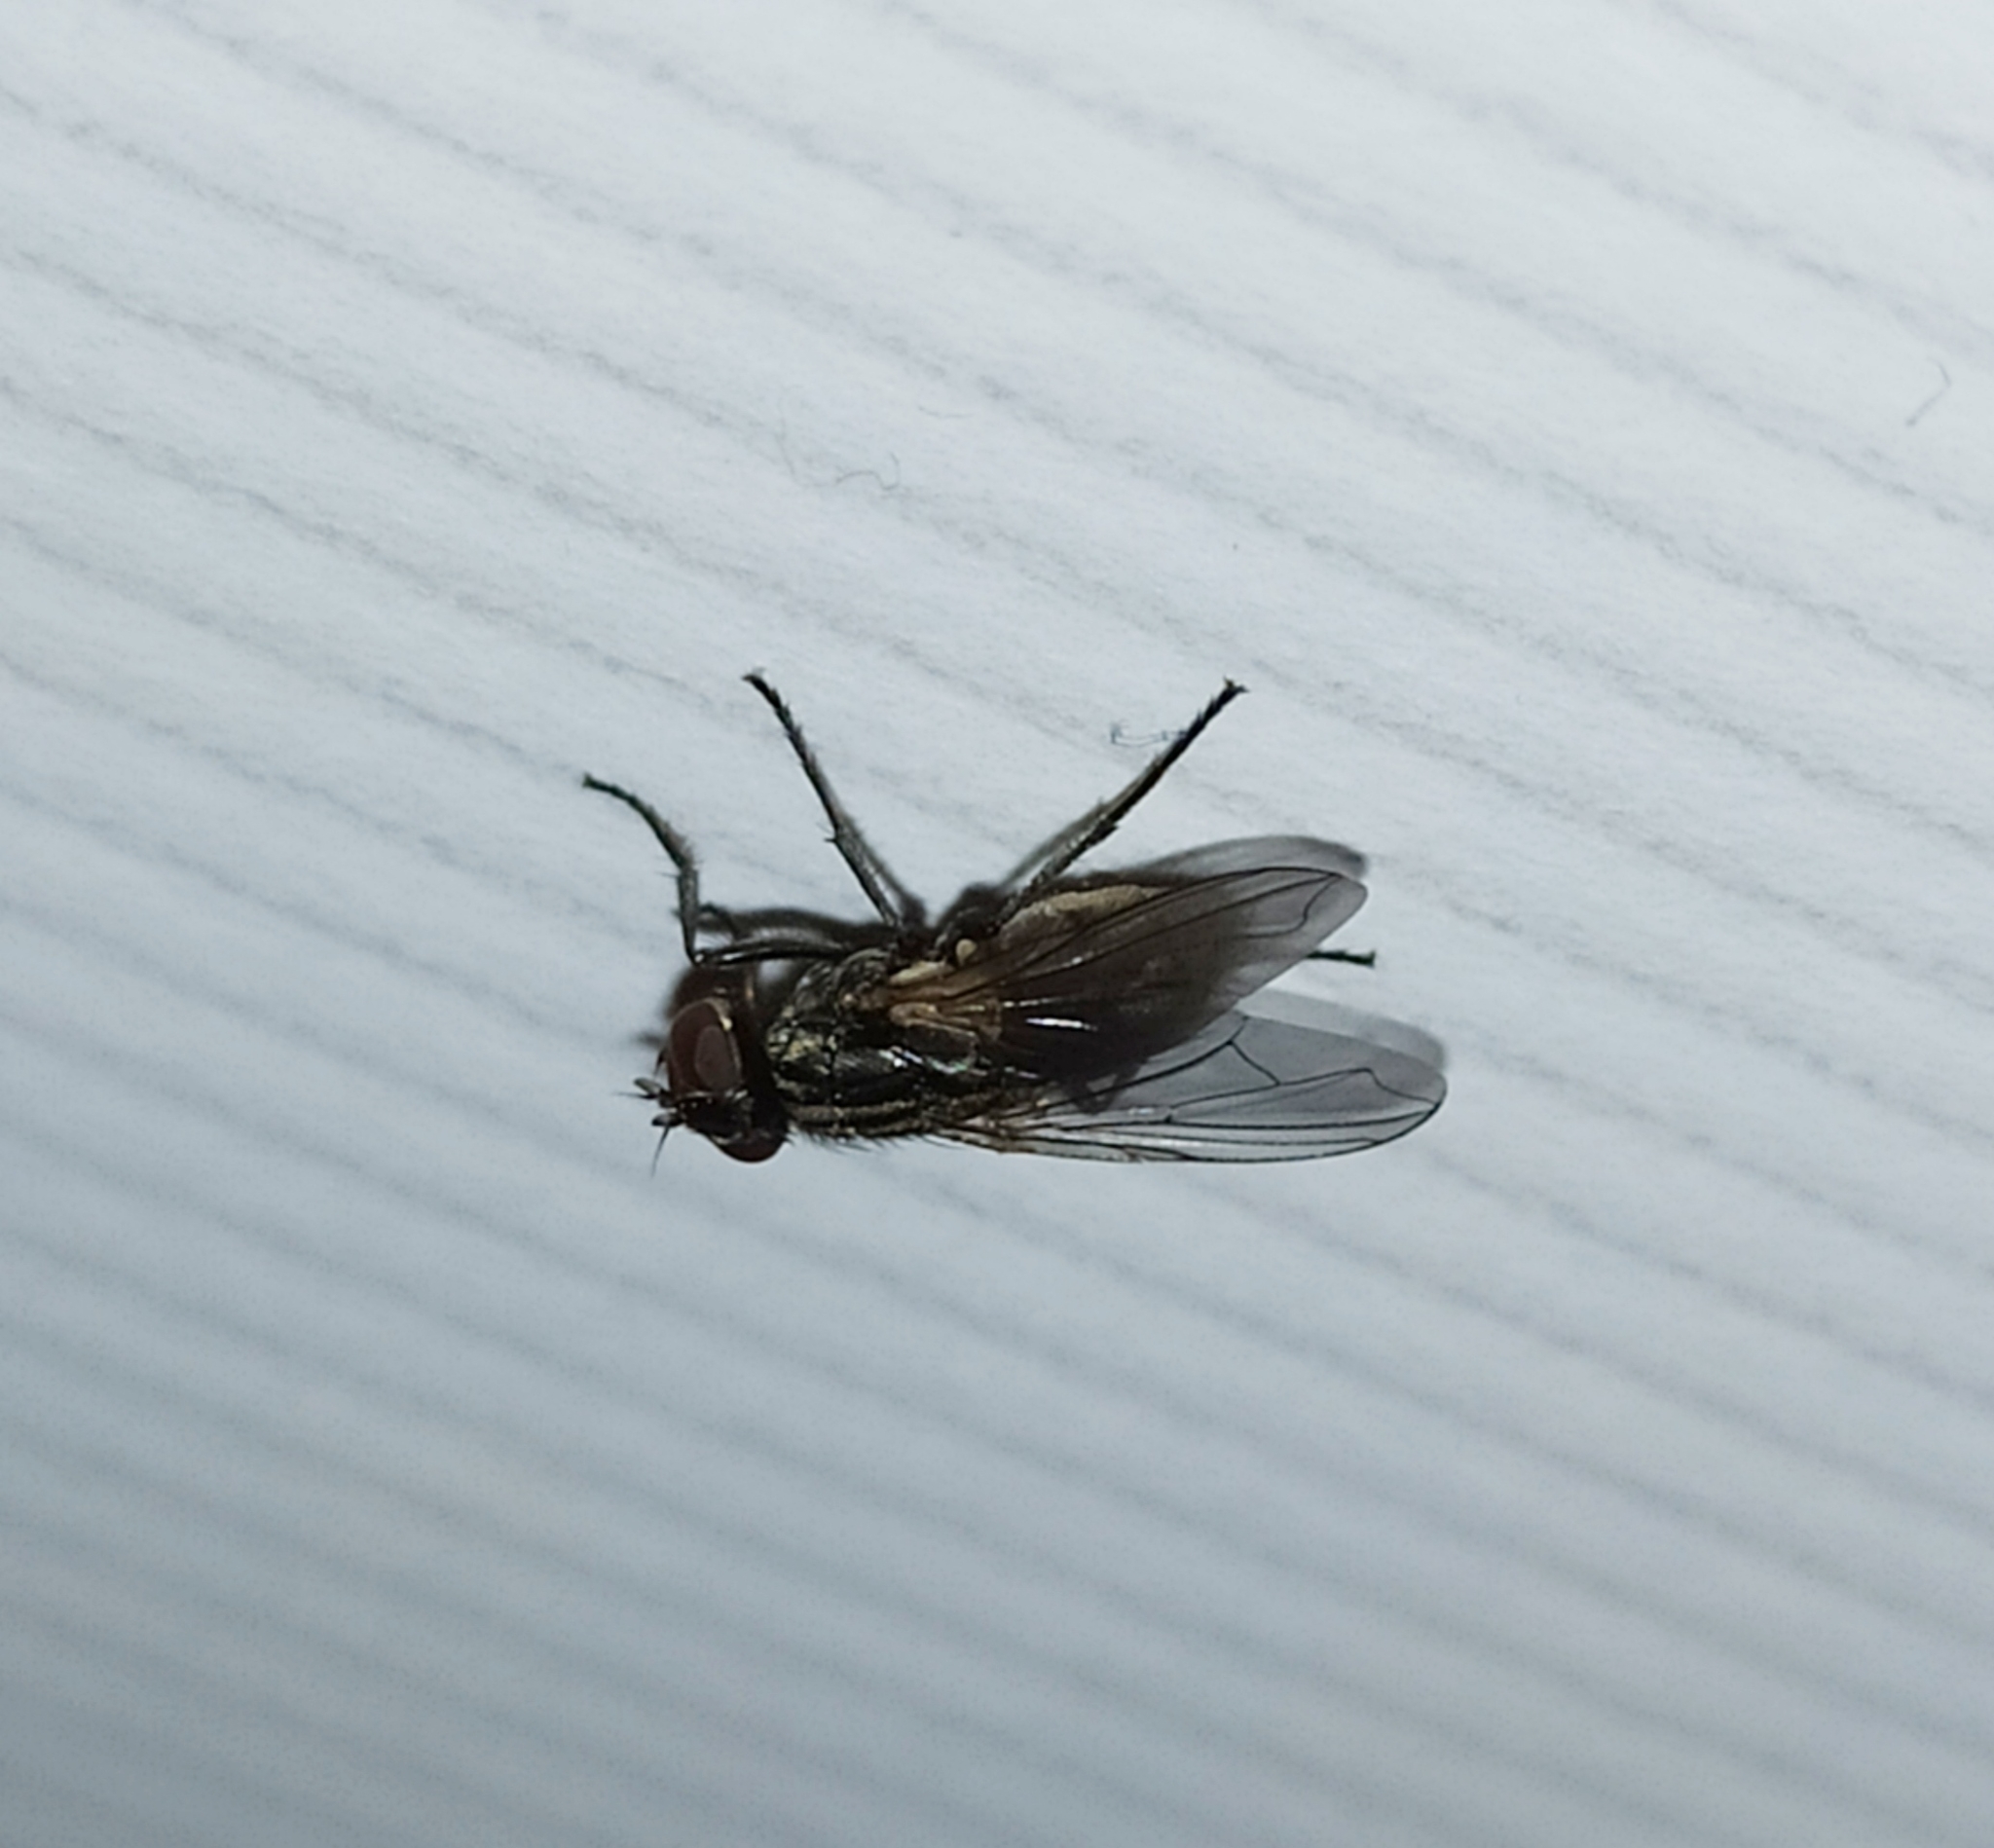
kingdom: Animalia
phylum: Arthropoda
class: Insecta
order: Diptera
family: Muscidae
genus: Musca
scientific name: Musca domestica
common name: House fly
